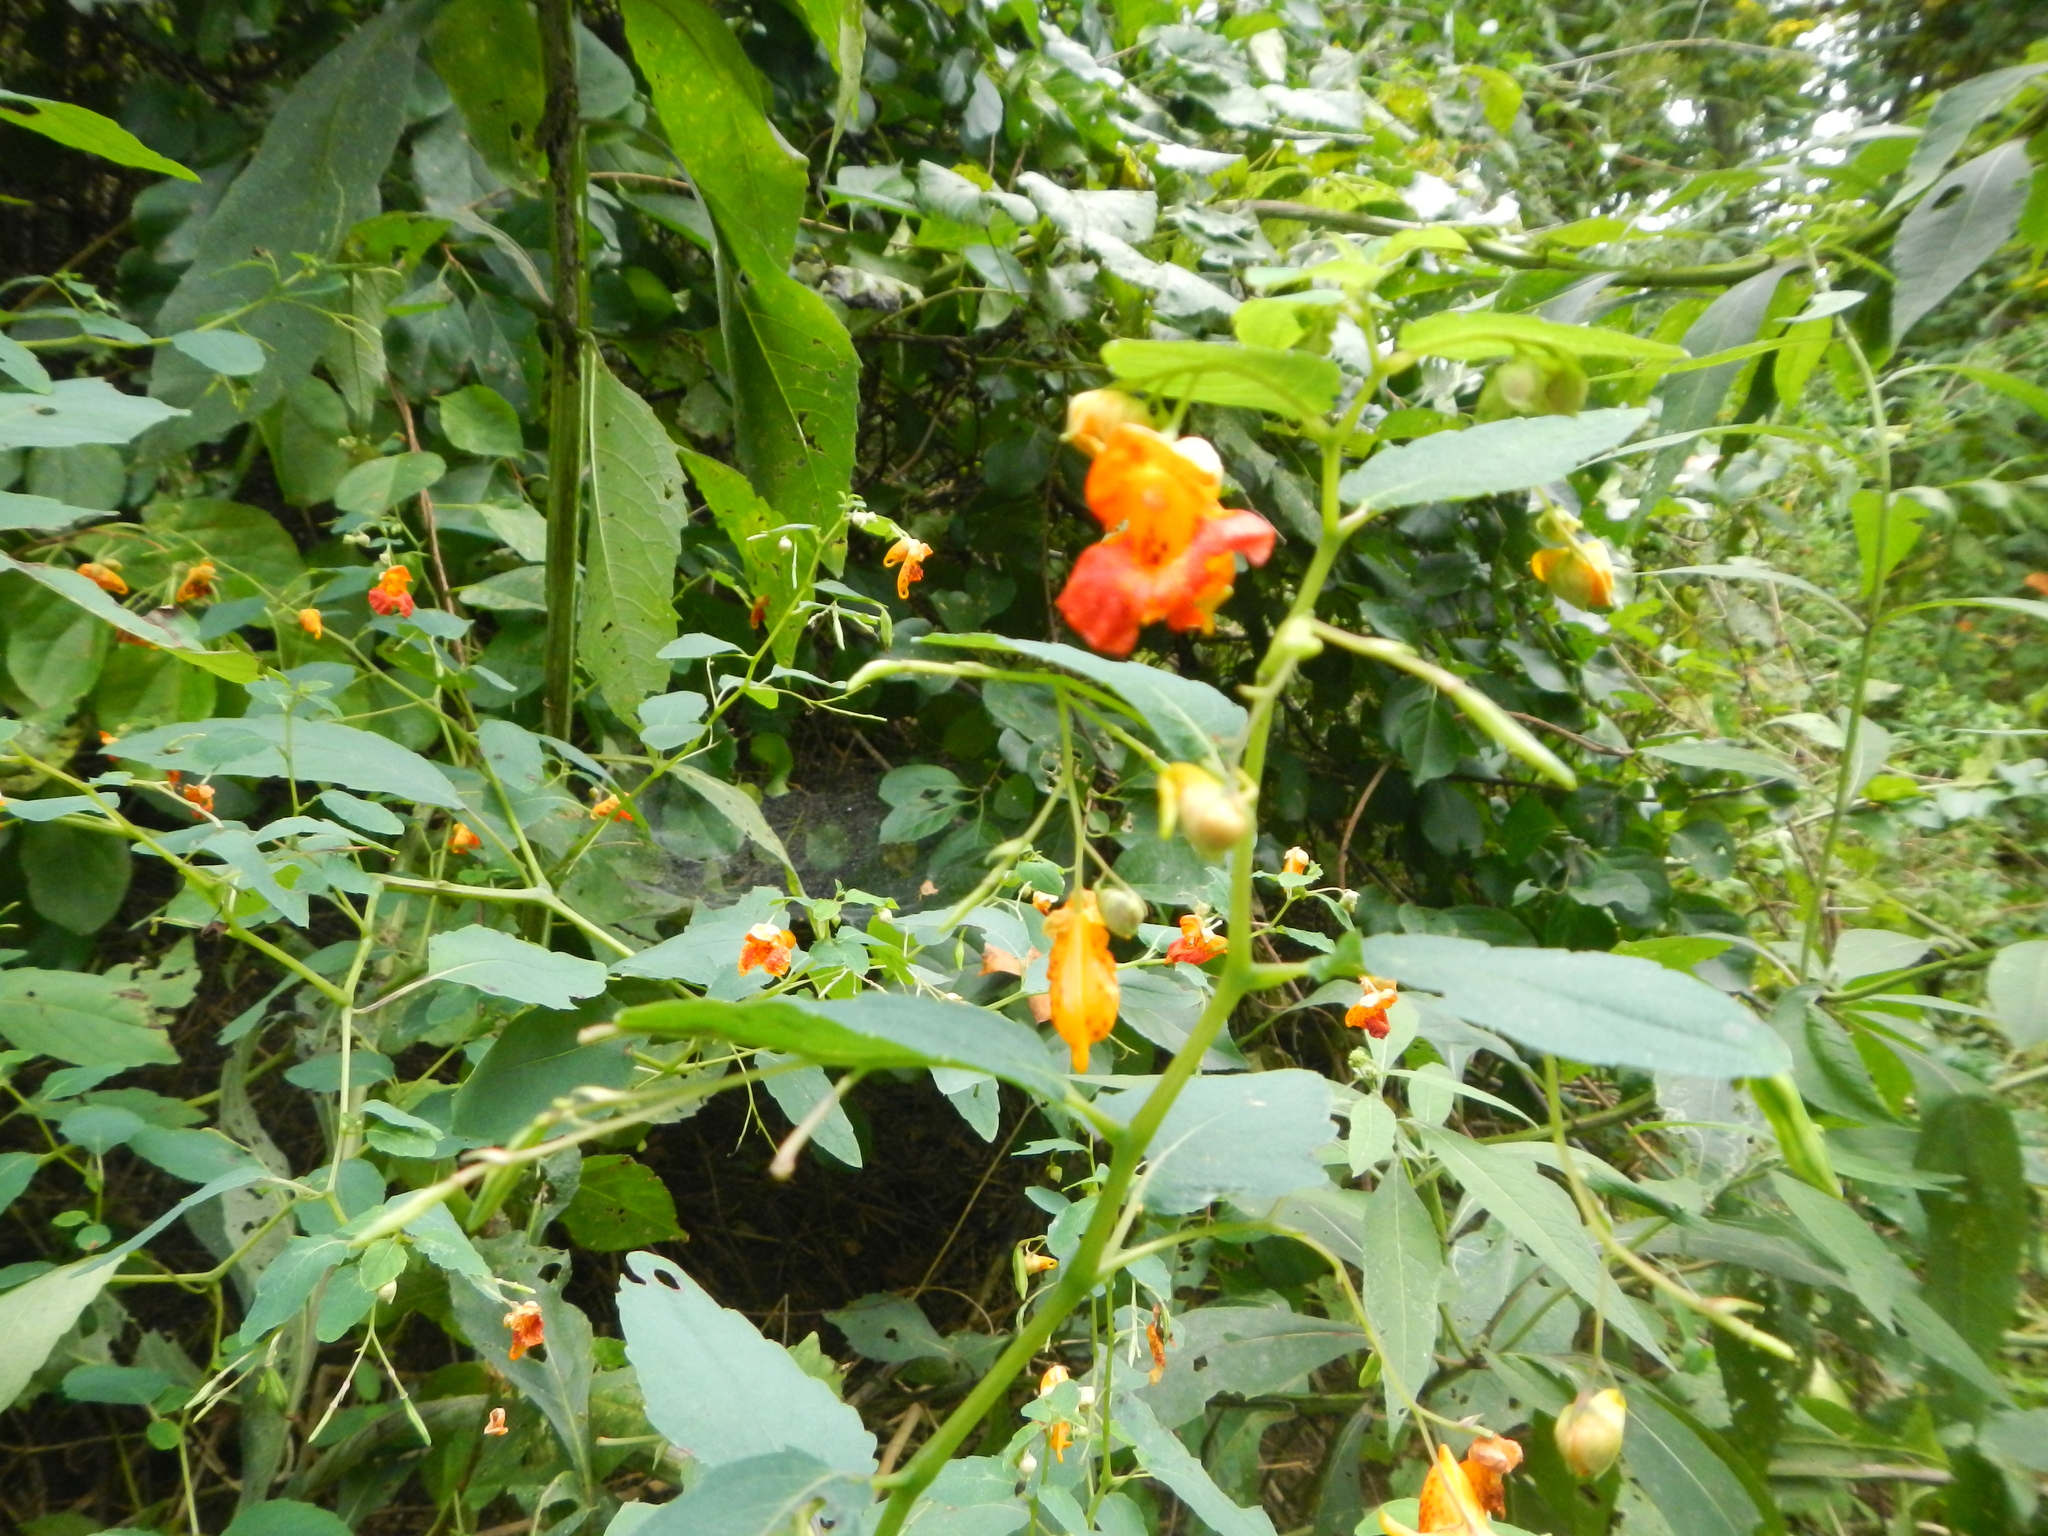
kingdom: Plantae
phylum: Tracheophyta
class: Magnoliopsida
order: Ericales
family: Balsaminaceae
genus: Impatiens
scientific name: Impatiens capensis
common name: Orange balsam
